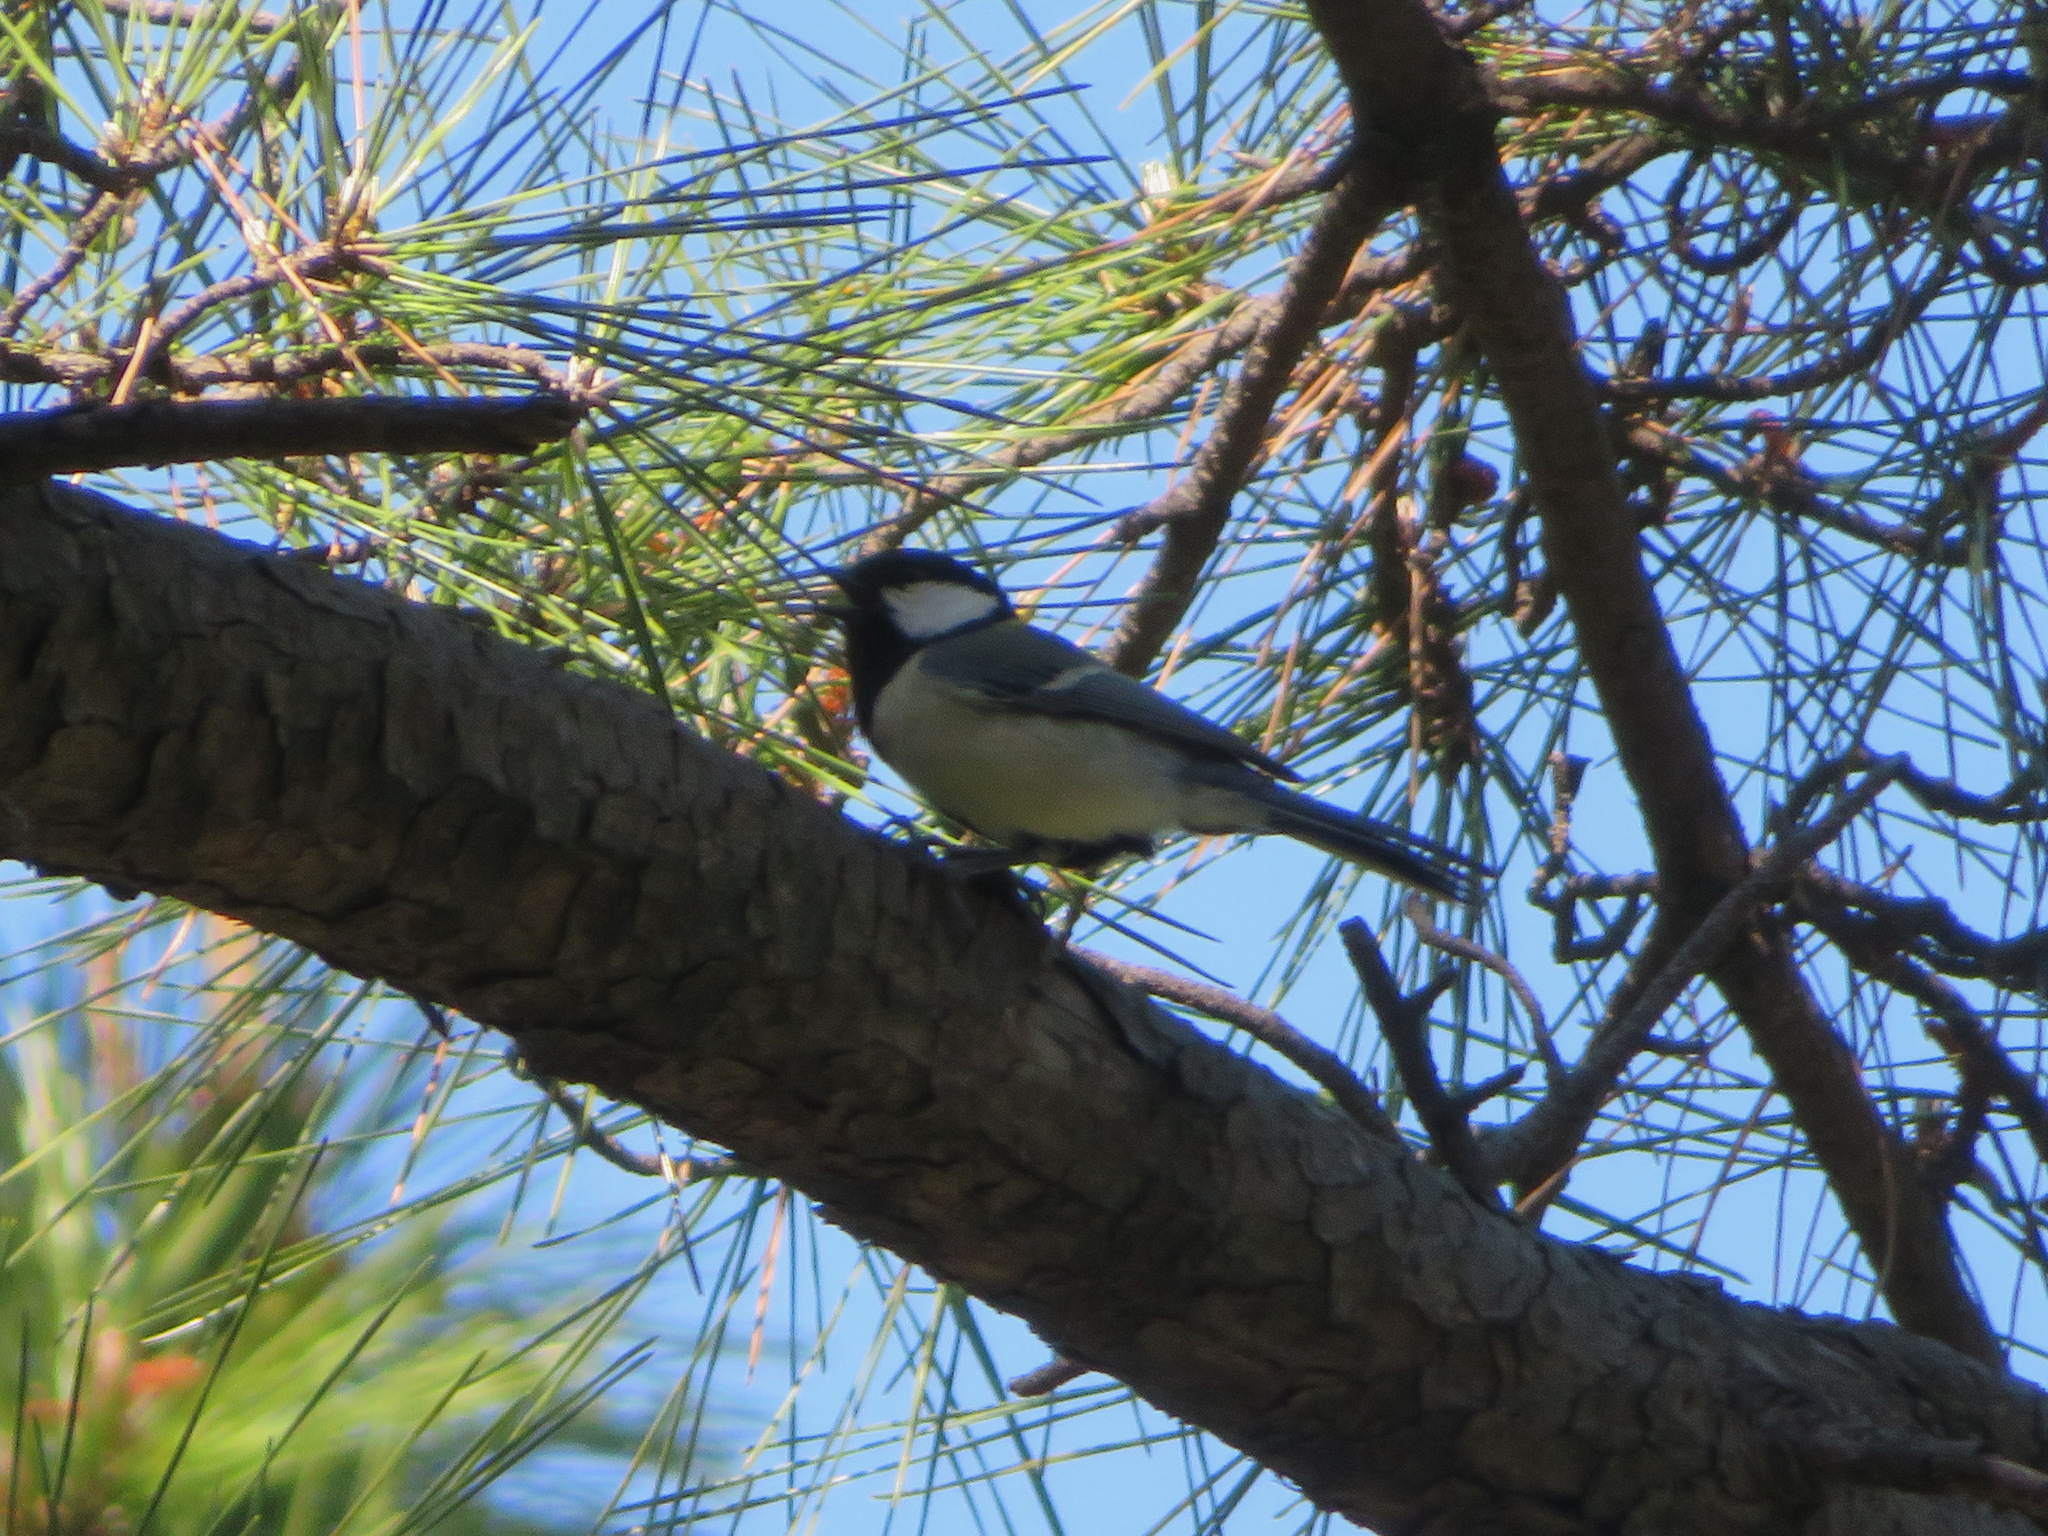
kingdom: Animalia
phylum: Chordata
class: Aves
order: Passeriformes
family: Paridae
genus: Parus
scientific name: Parus minor
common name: Japanese tit
